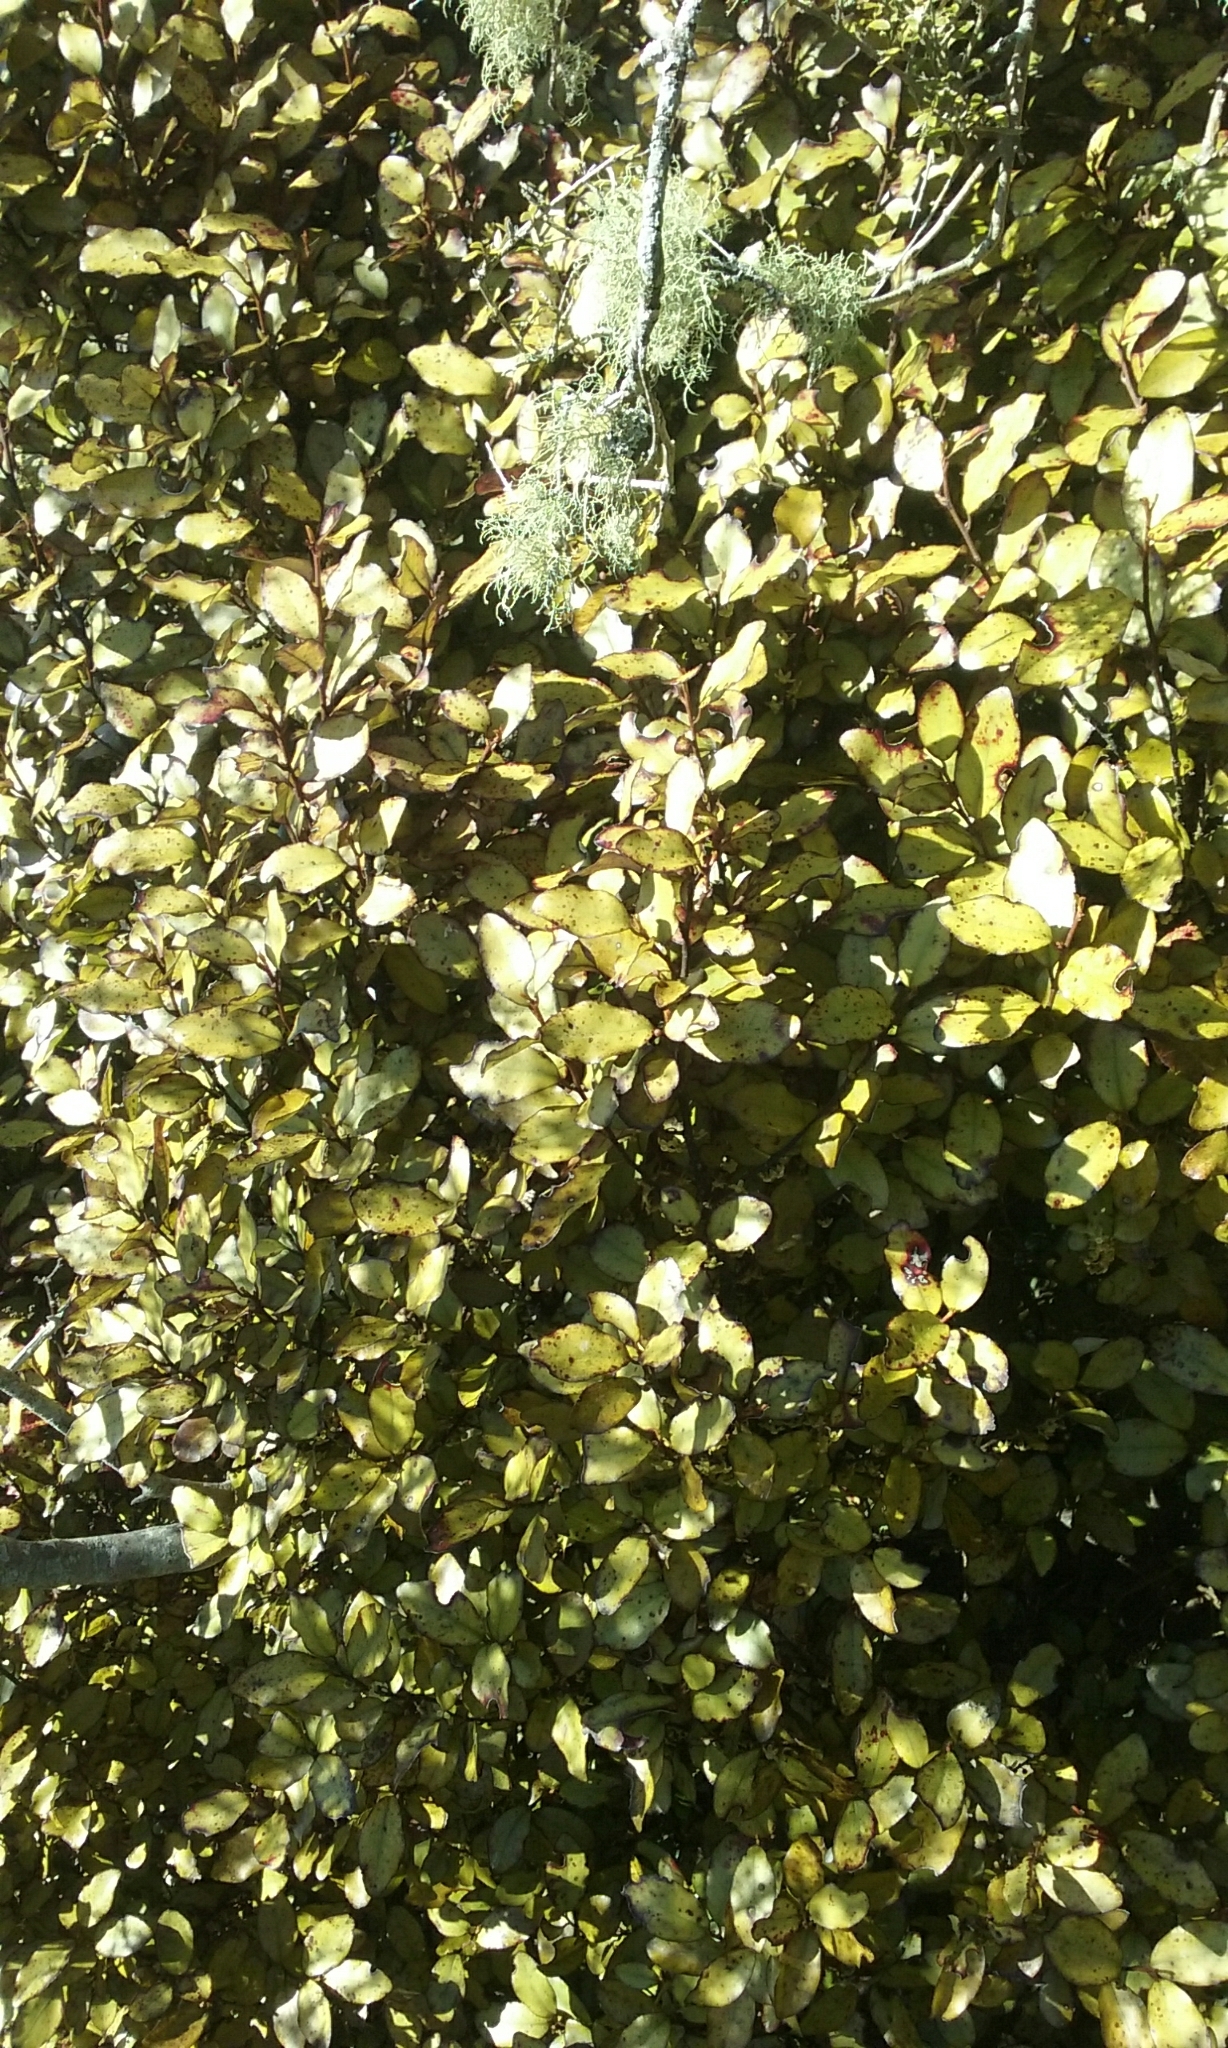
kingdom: Plantae
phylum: Tracheophyta
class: Magnoliopsida
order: Canellales
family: Winteraceae
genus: Pseudowintera
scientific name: Pseudowintera colorata
